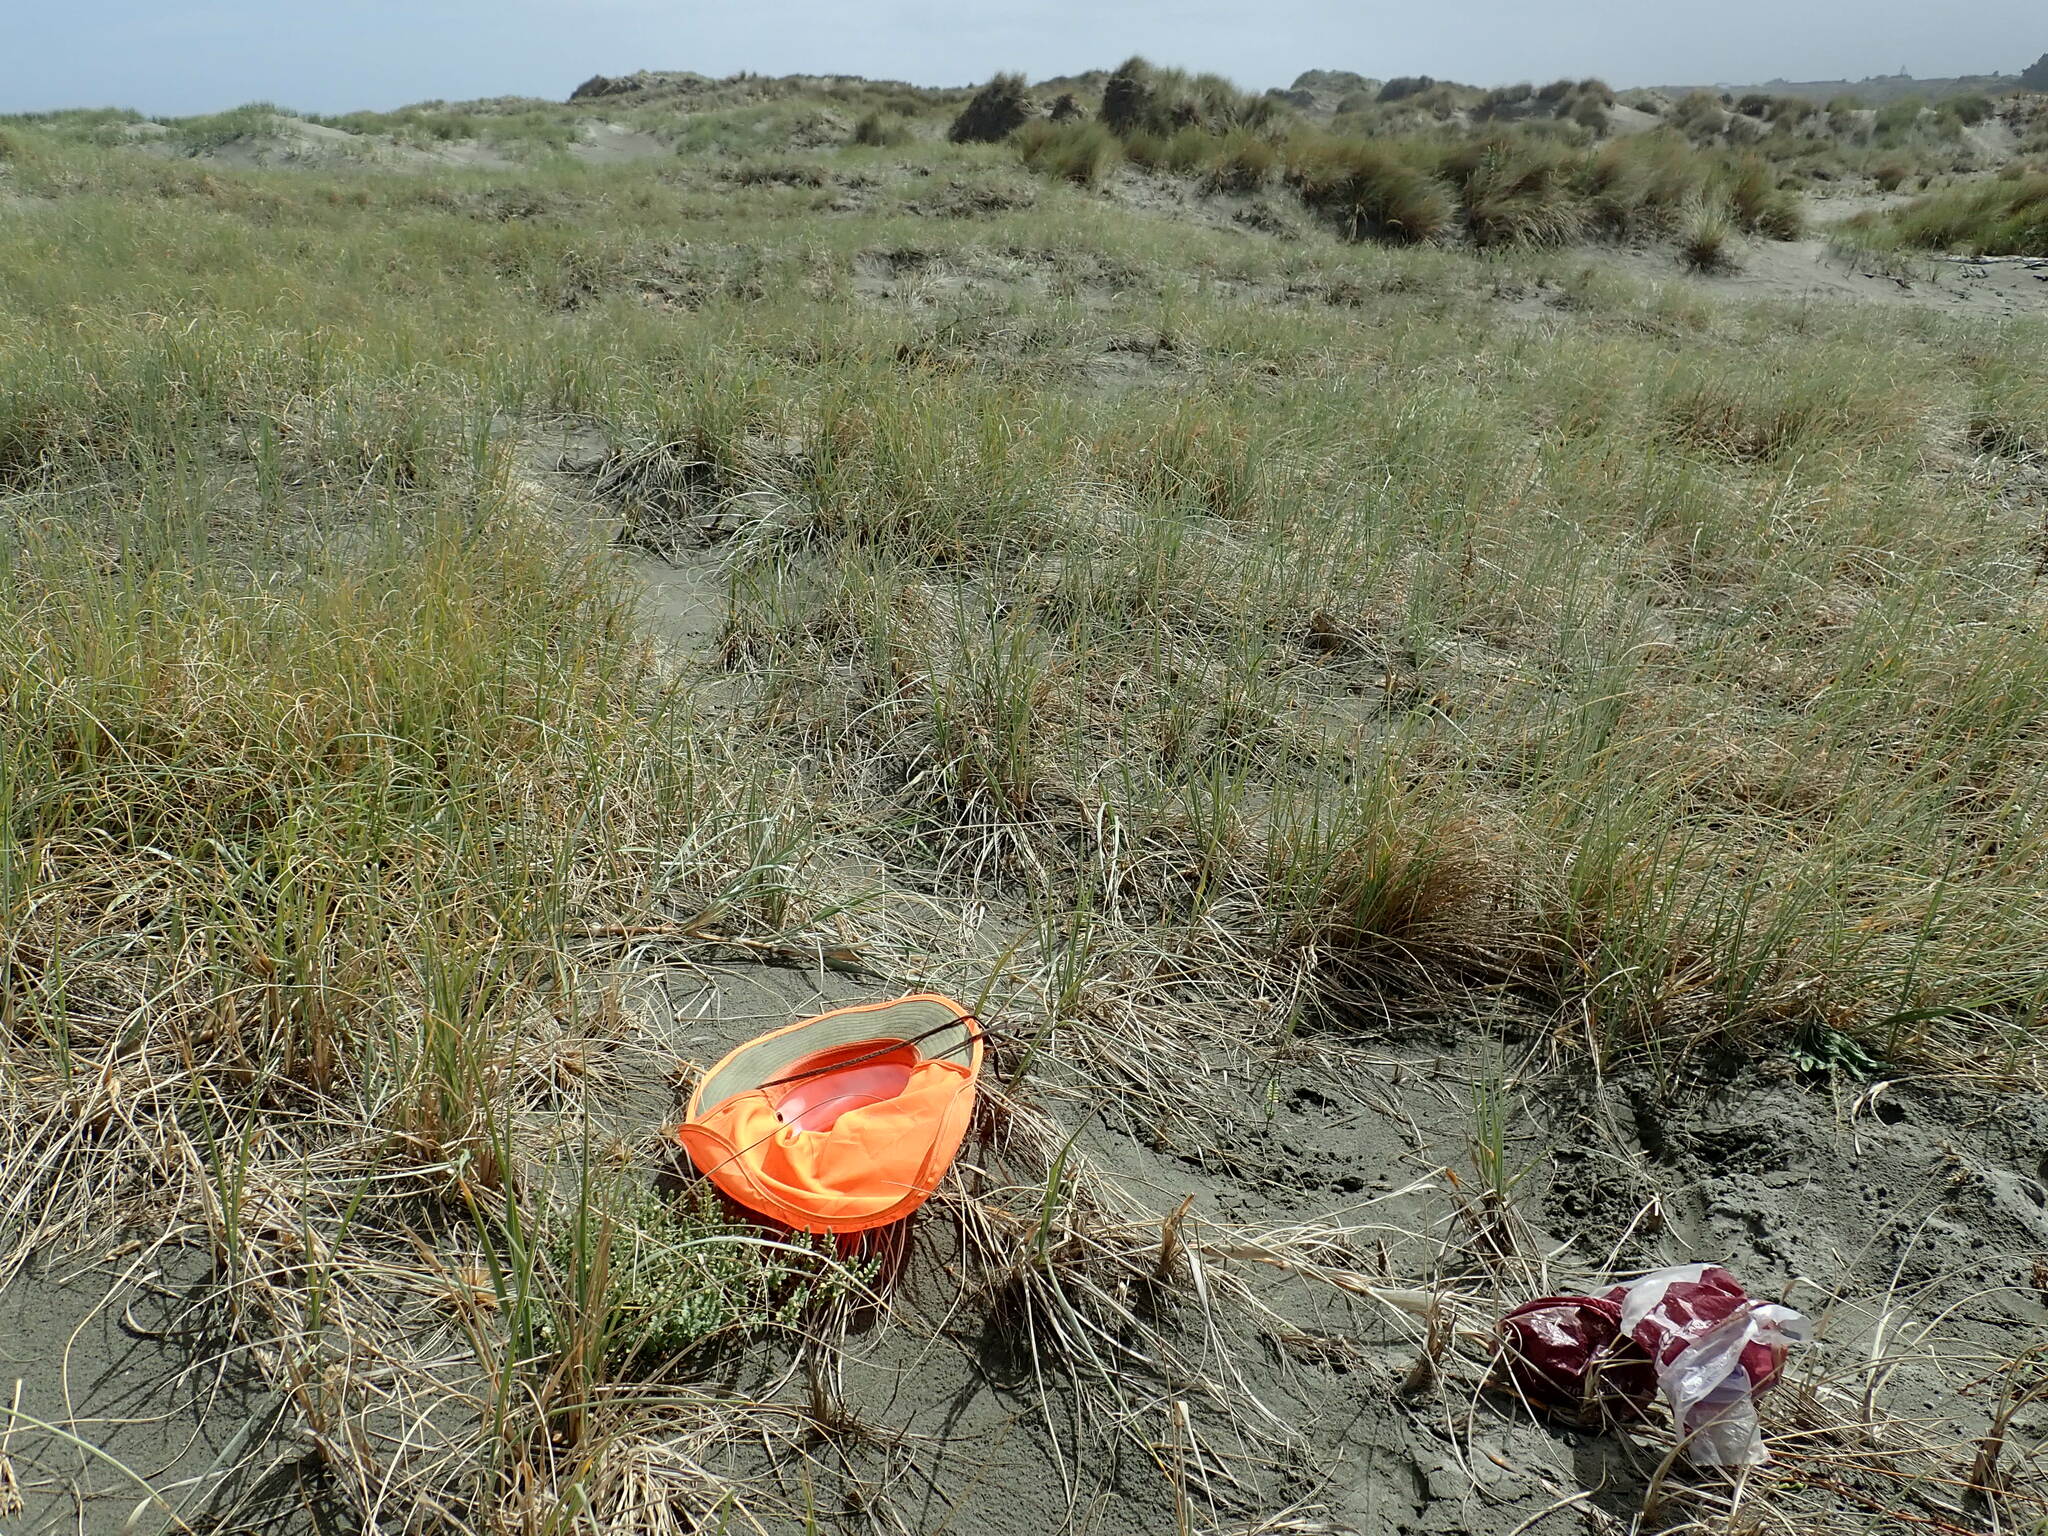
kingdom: Plantae
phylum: Tracheophyta
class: Magnoliopsida
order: Malvales
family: Thymelaeaceae
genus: Pimelea
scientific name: Pimelea villosa
